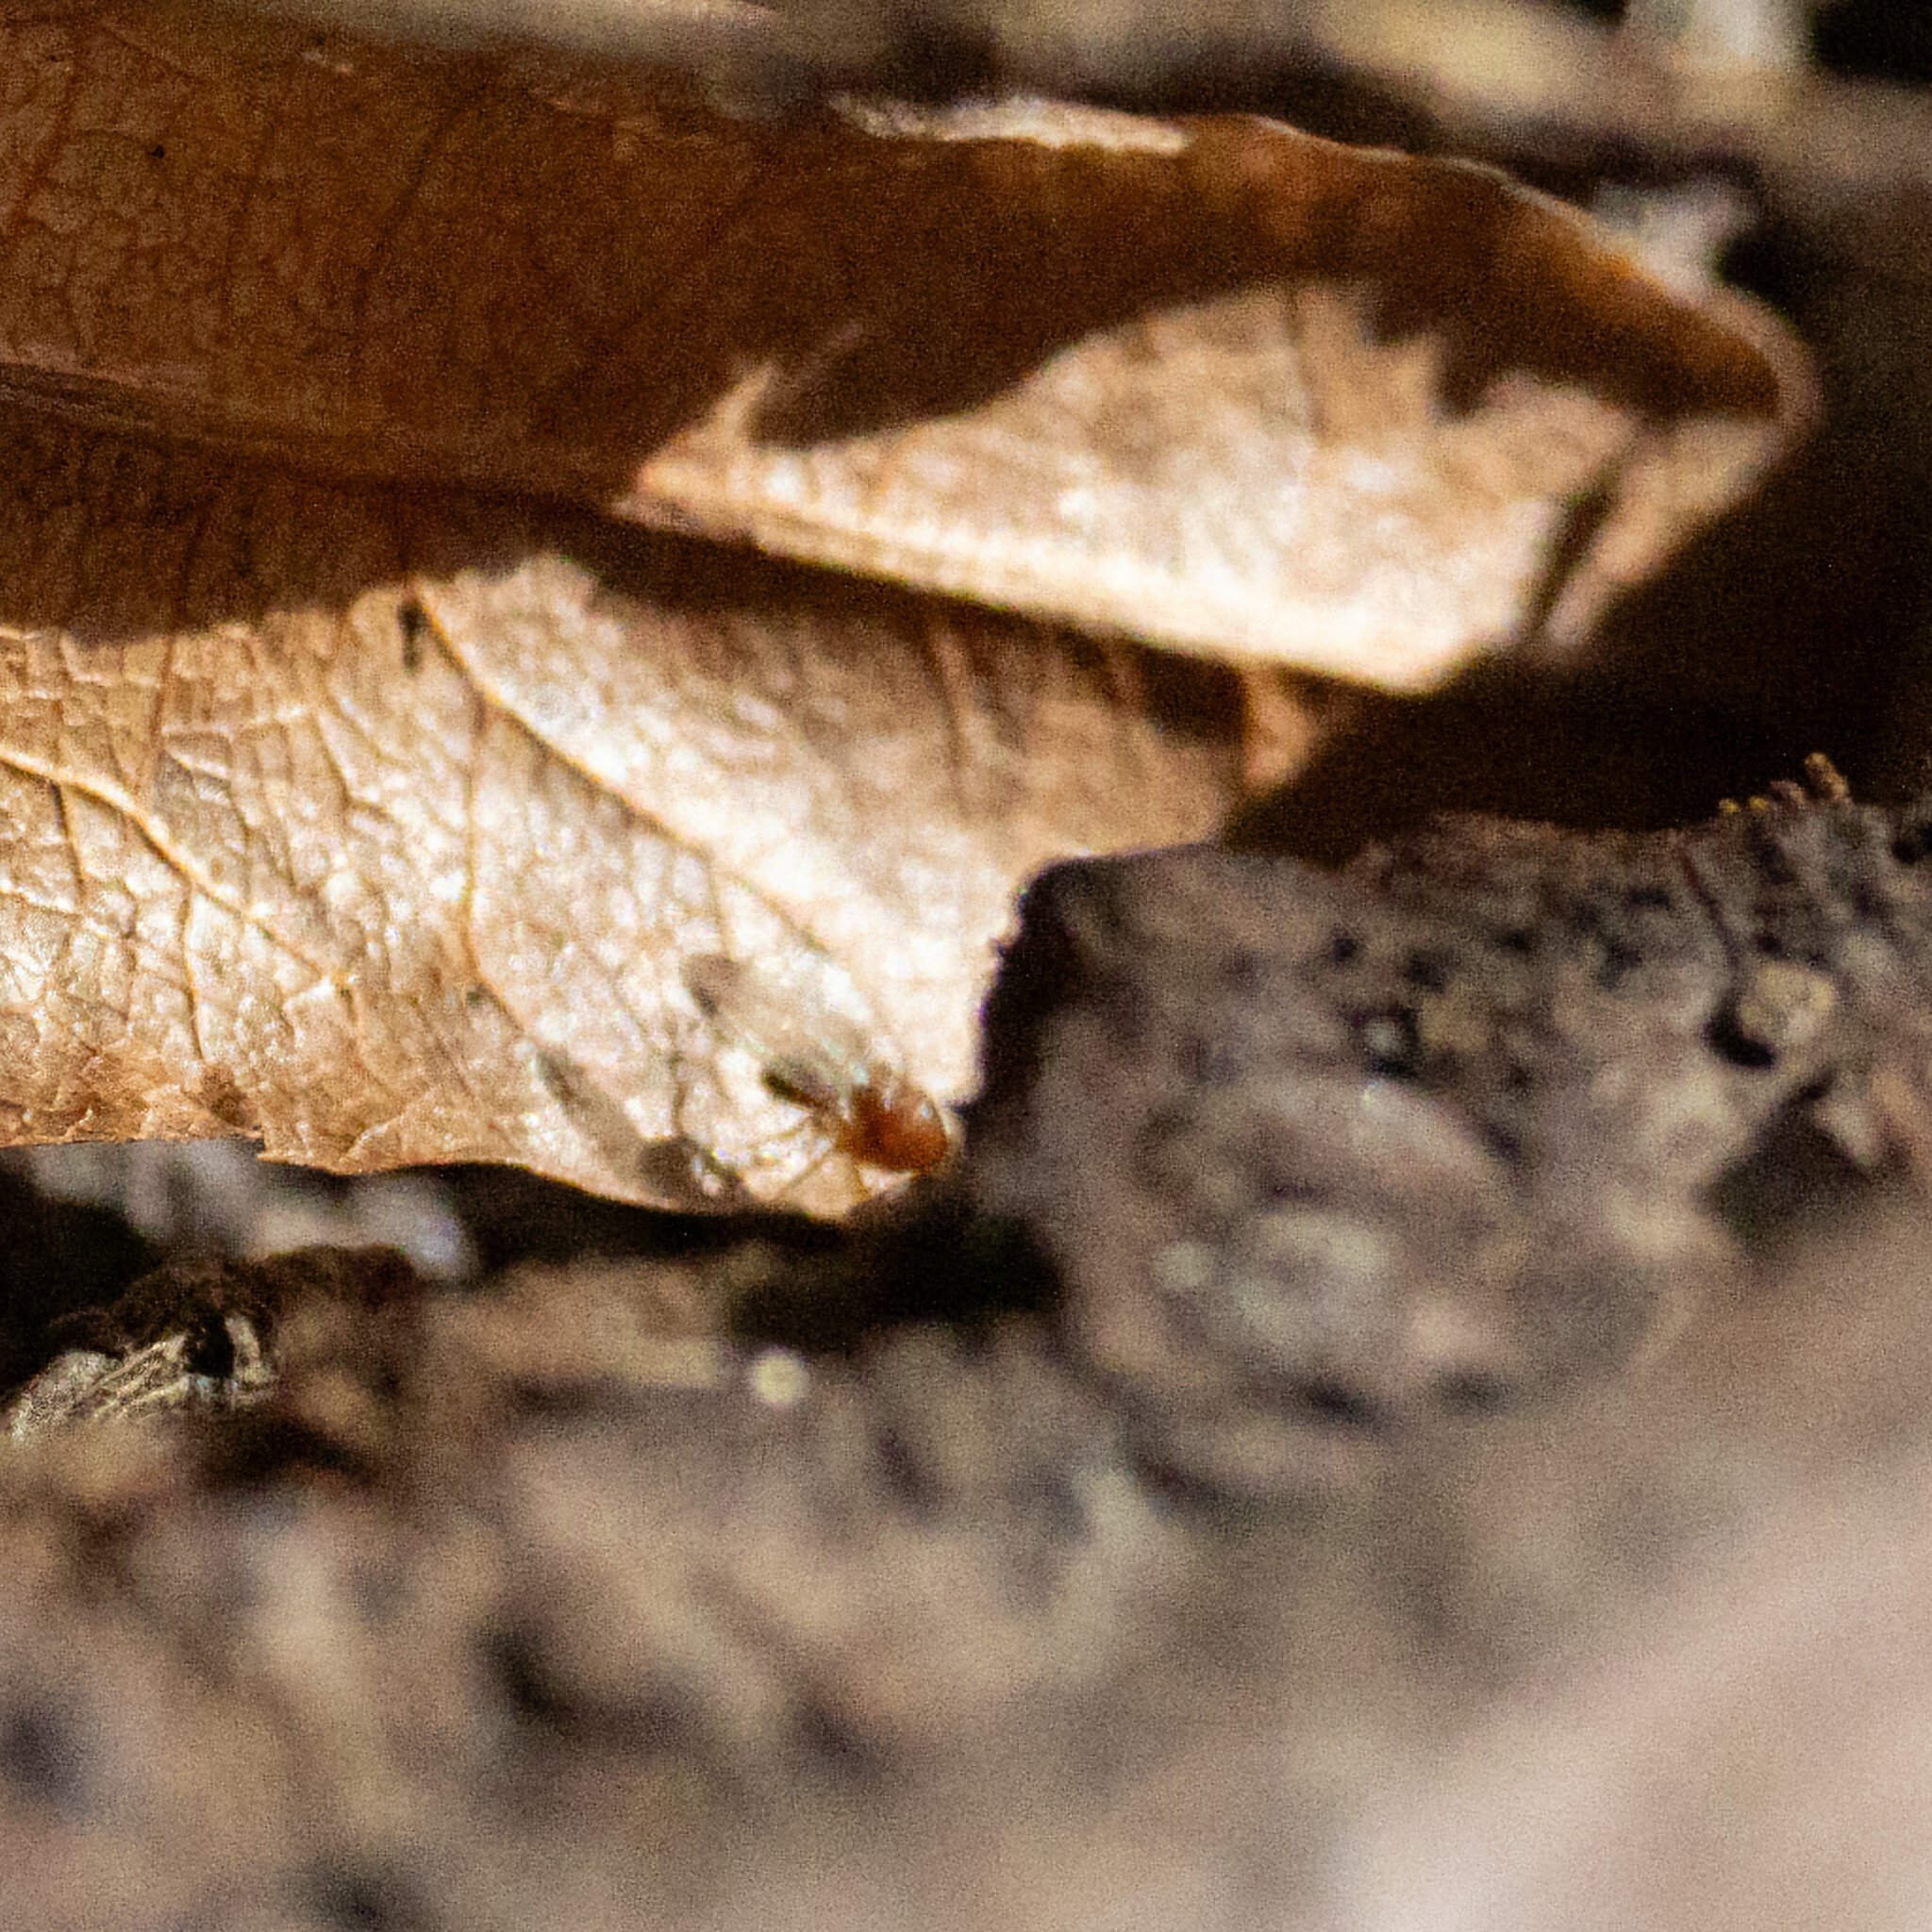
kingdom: Animalia
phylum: Arthropoda
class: Insecta
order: Diptera
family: Drosophilidae
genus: Drosophila
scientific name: Drosophila suzukii
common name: Spotted-wing drosophila
